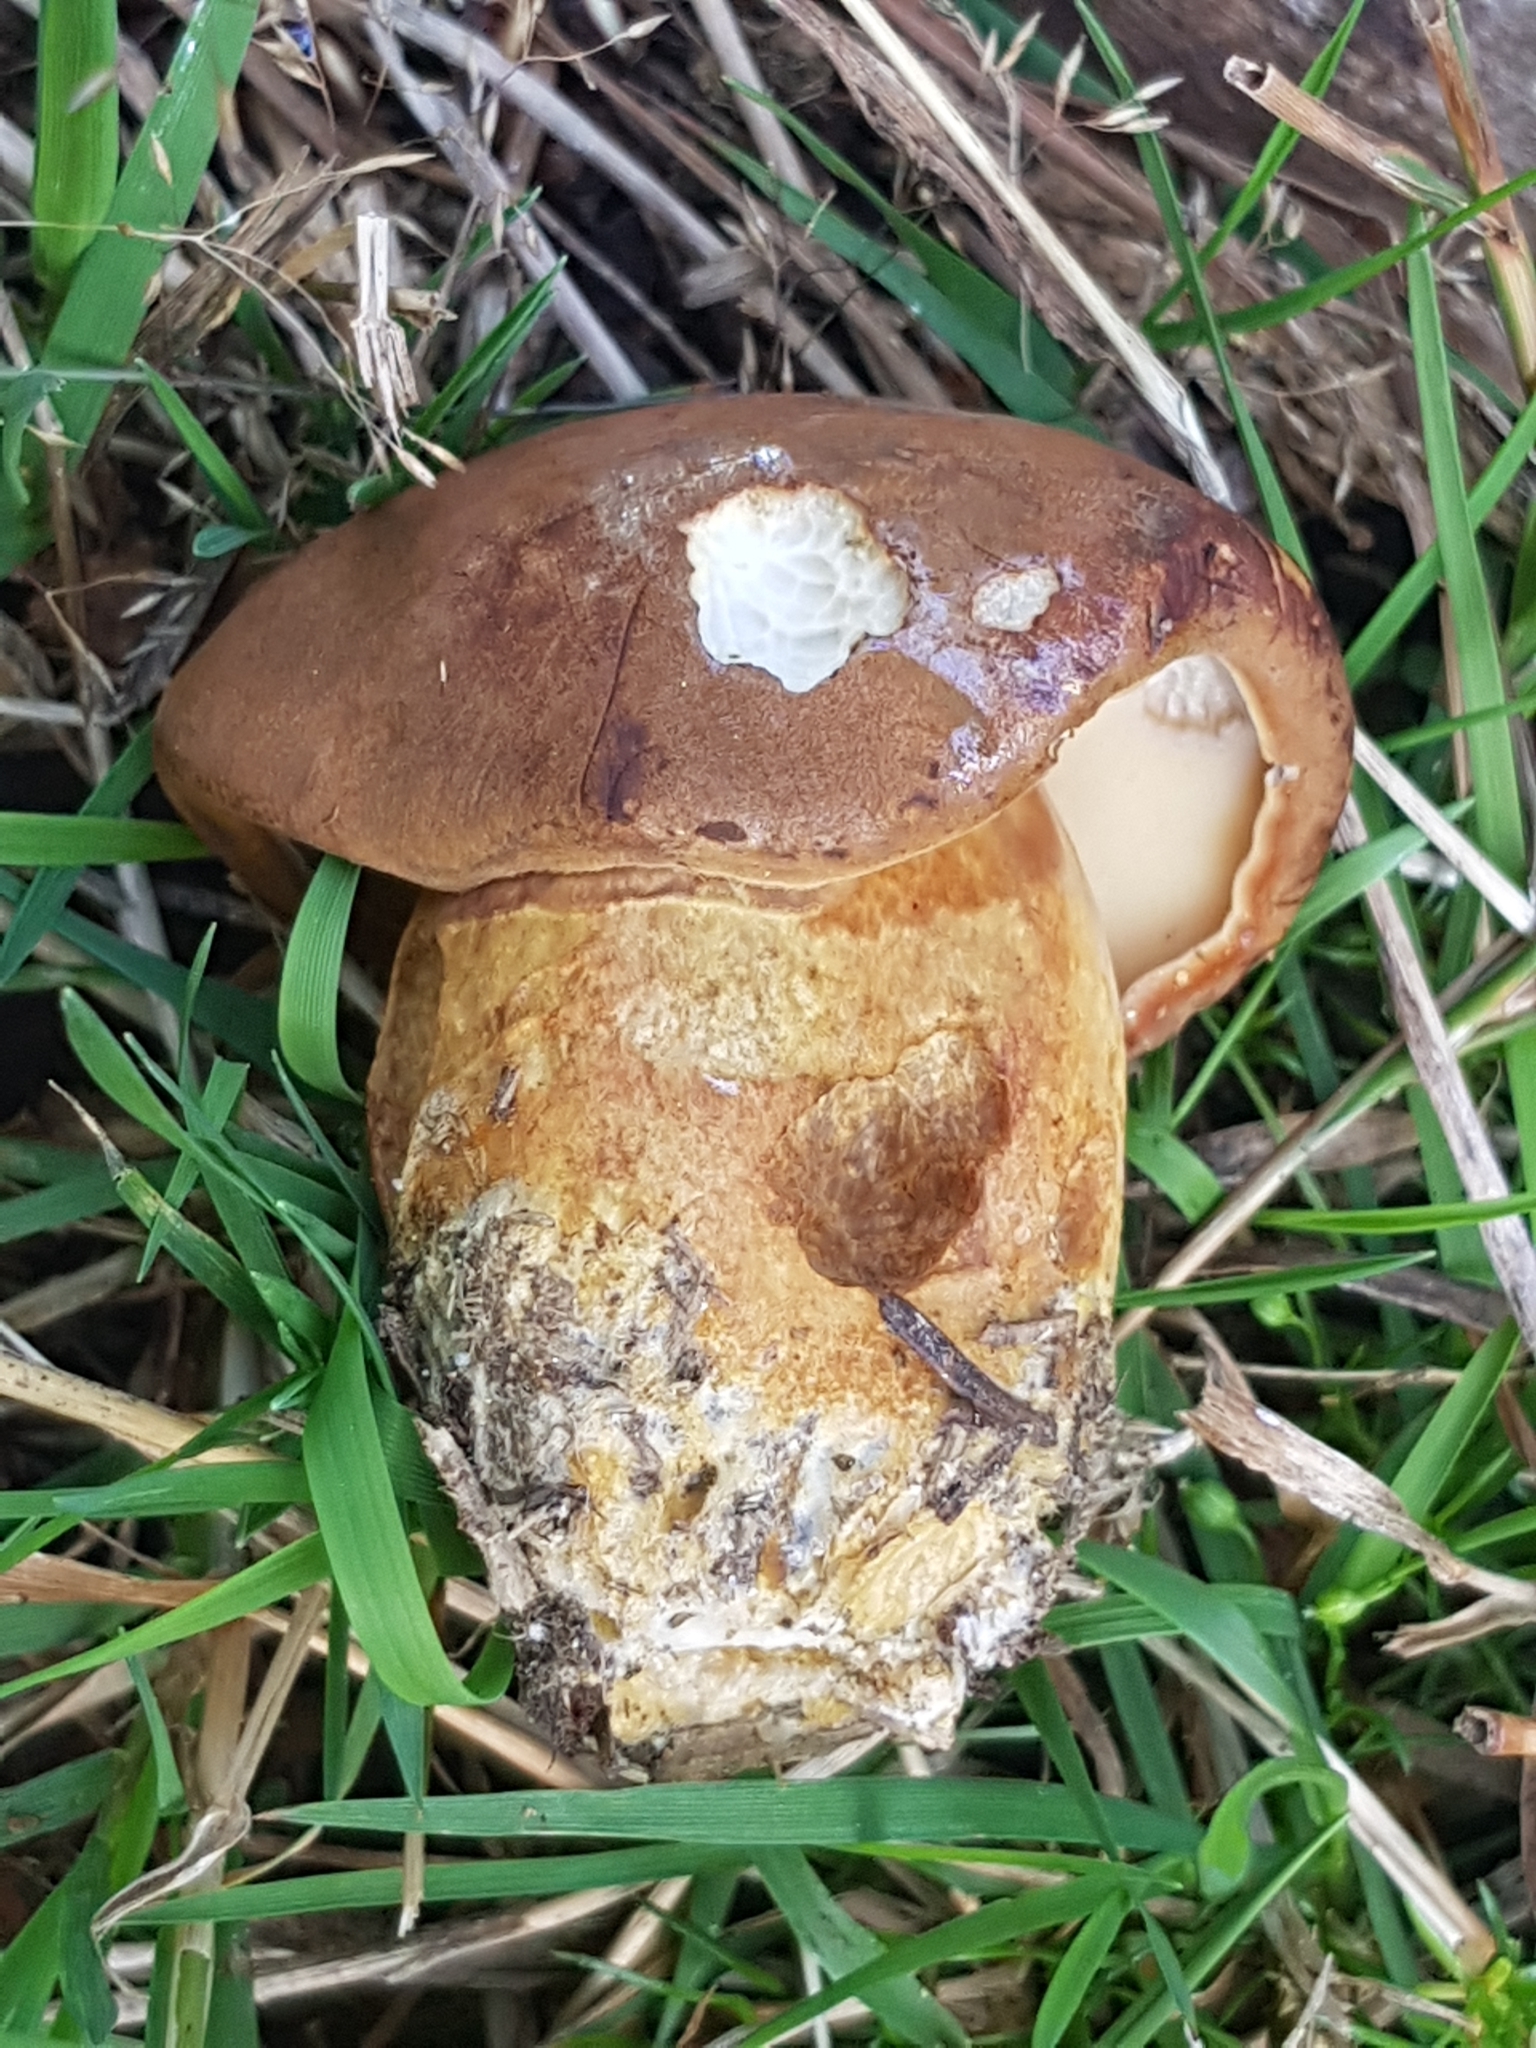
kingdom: Fungi
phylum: Basidiomycota
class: Agaricomycetes
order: Boletales
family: Boletaceae
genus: Imleria
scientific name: Imleria badia
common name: Bay bolete
